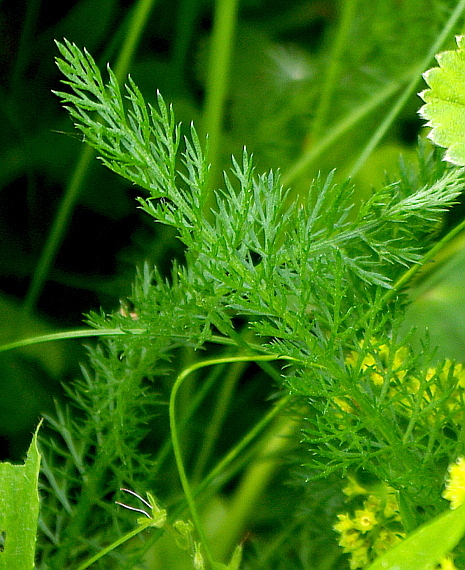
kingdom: Plantae
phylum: Tracheophyta
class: Magnoliopsida
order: Asterales
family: Asteraceae
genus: Achillea
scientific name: Achillea millefolium
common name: Yarrow
